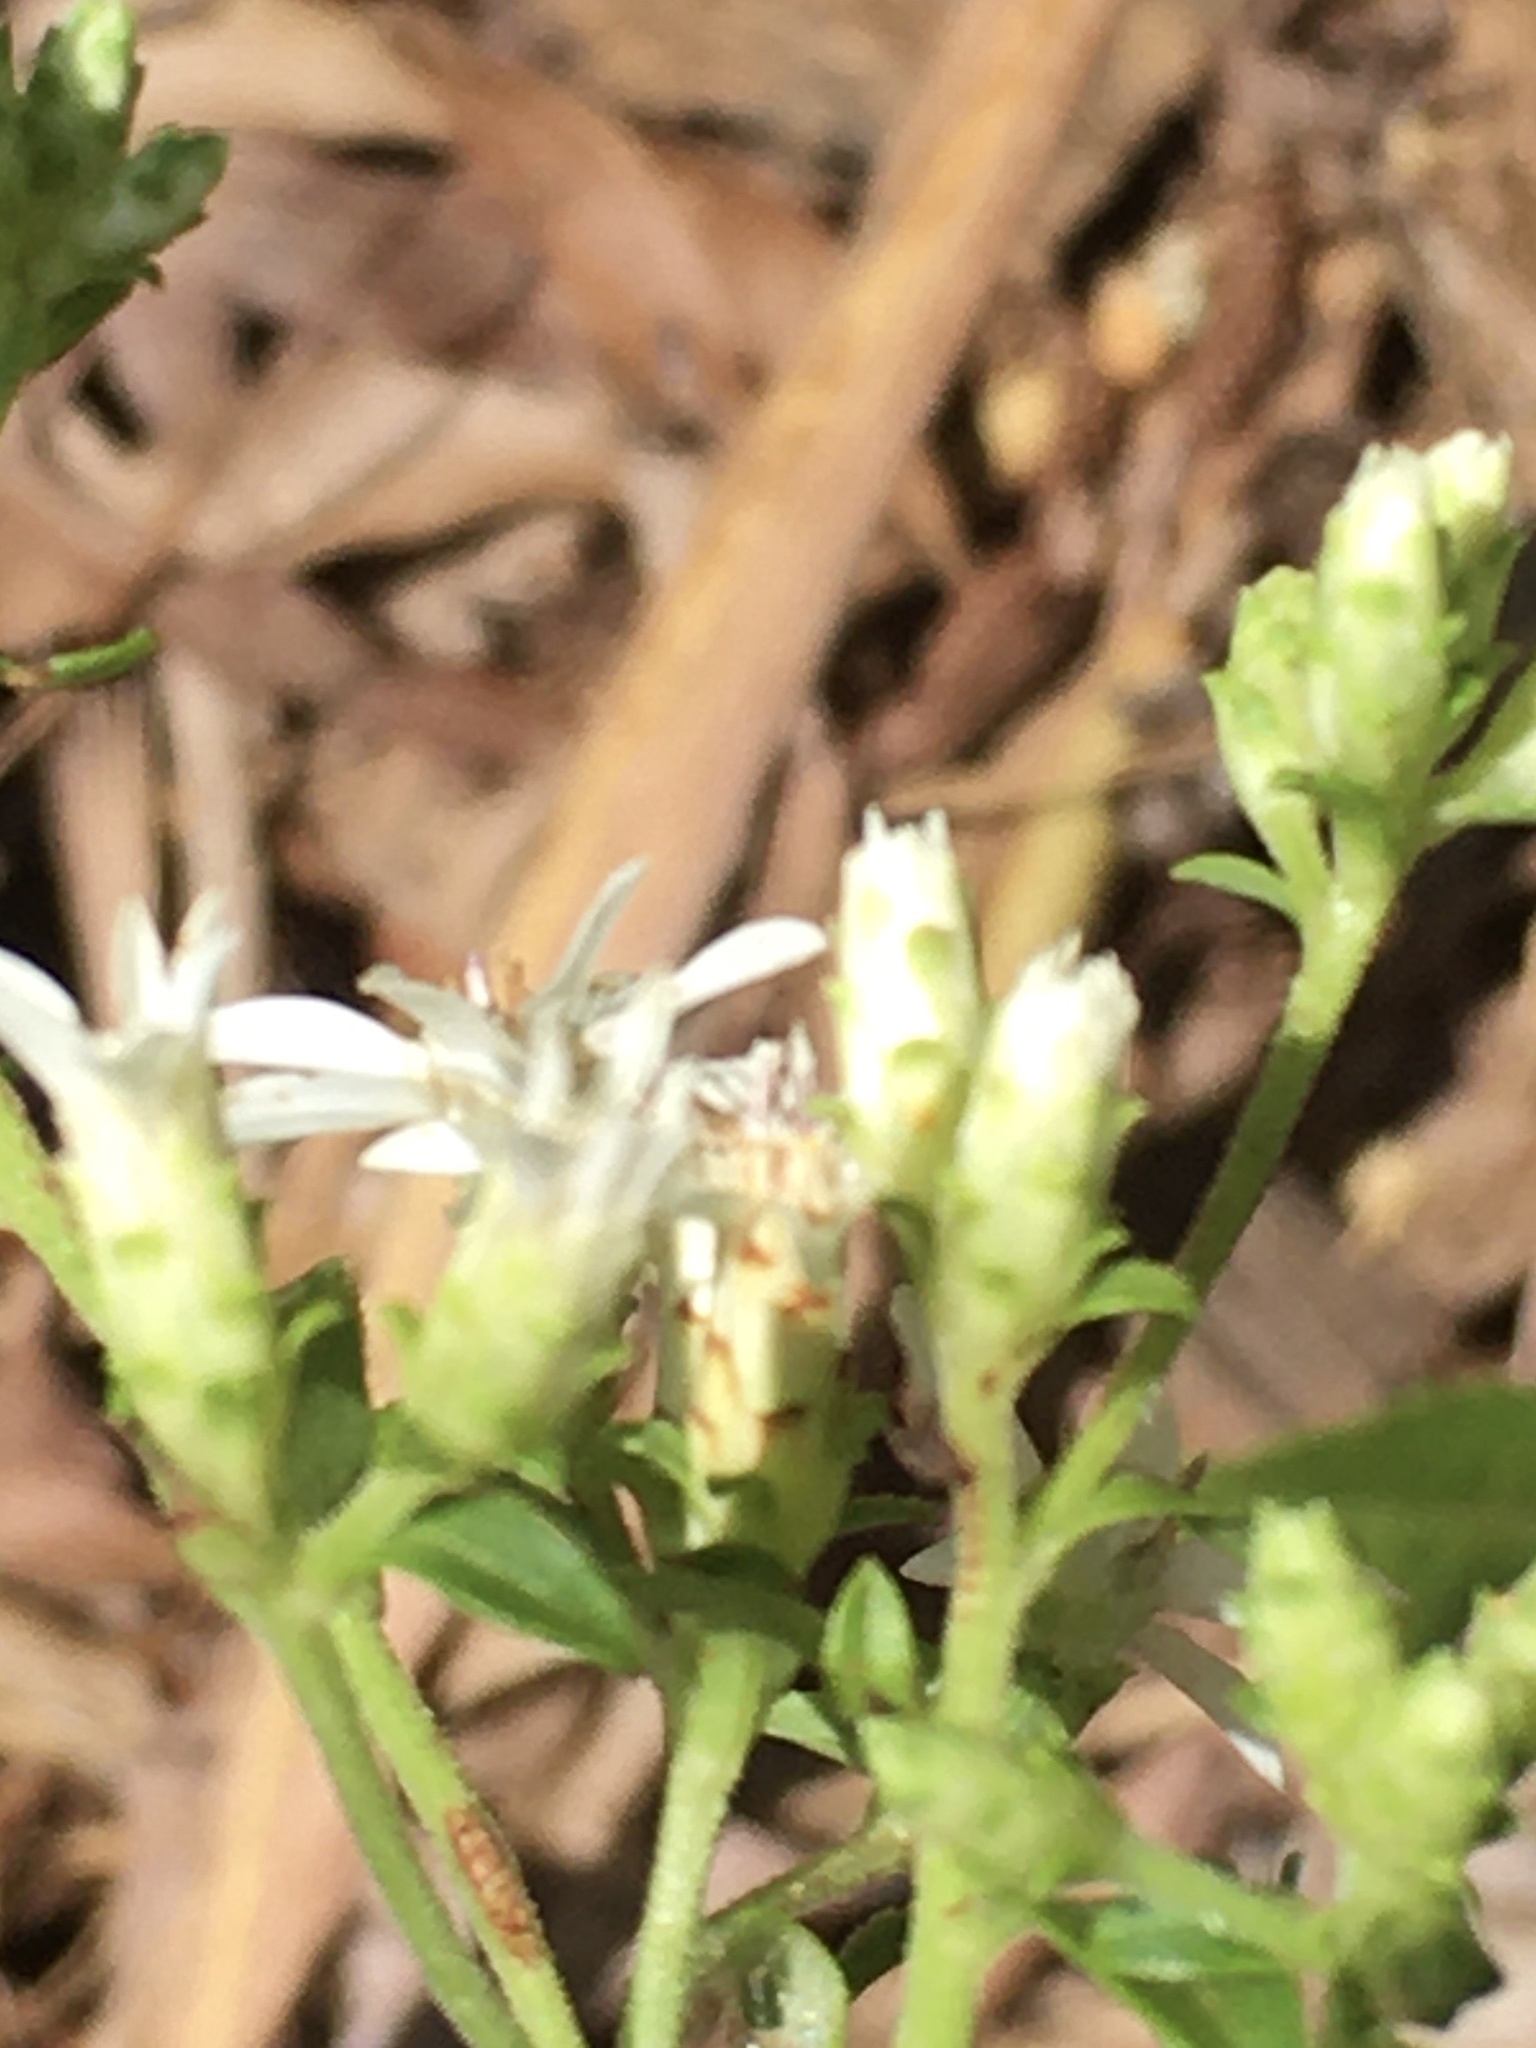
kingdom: Plantae
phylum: Tracheophyta
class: Magnoliopsida
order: Asterales
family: Asteraceae
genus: Sericocarpus
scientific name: Sericocarpus asteroides
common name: Toothed white-top aster
